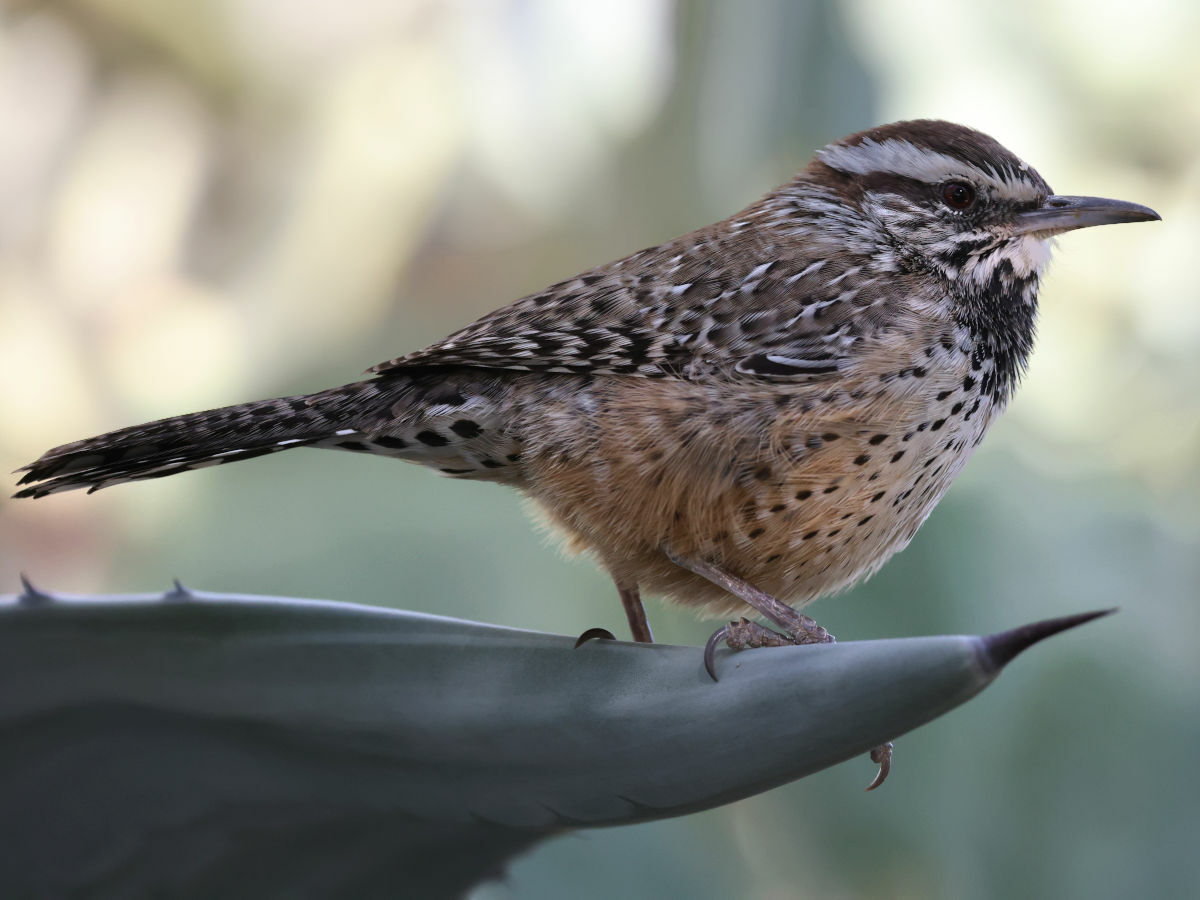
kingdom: Animalia
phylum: Chordata
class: Aves
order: Passeriformes
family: Troglodytidae
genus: Campylorhynchus
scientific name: Campylorhynchus brunneicapillus
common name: Cactus wren
